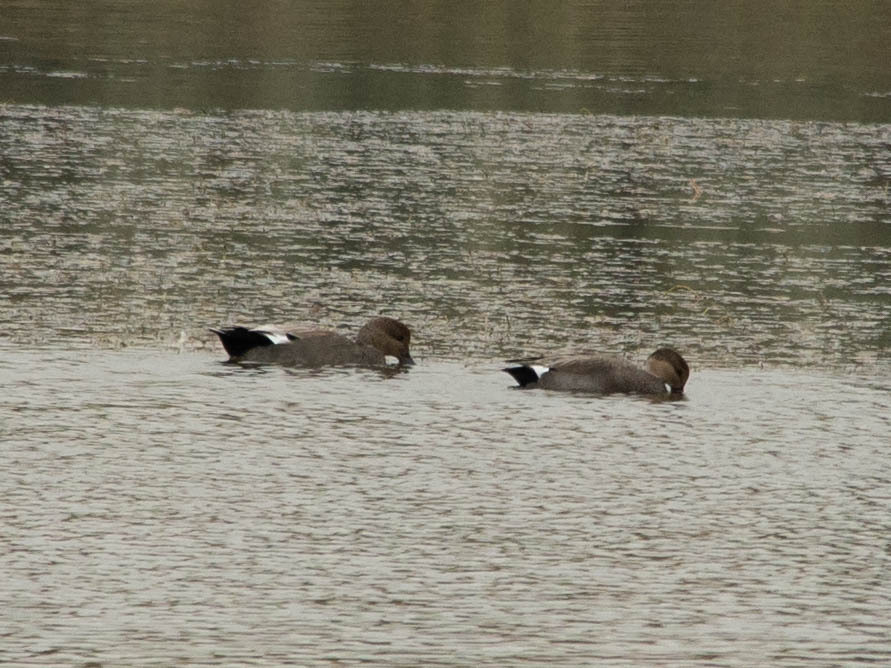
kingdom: Animalia
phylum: Chordata
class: Aves
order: Anseriformes
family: Anatidae
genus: Mareca
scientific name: Mareca strepera
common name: Gadwall
